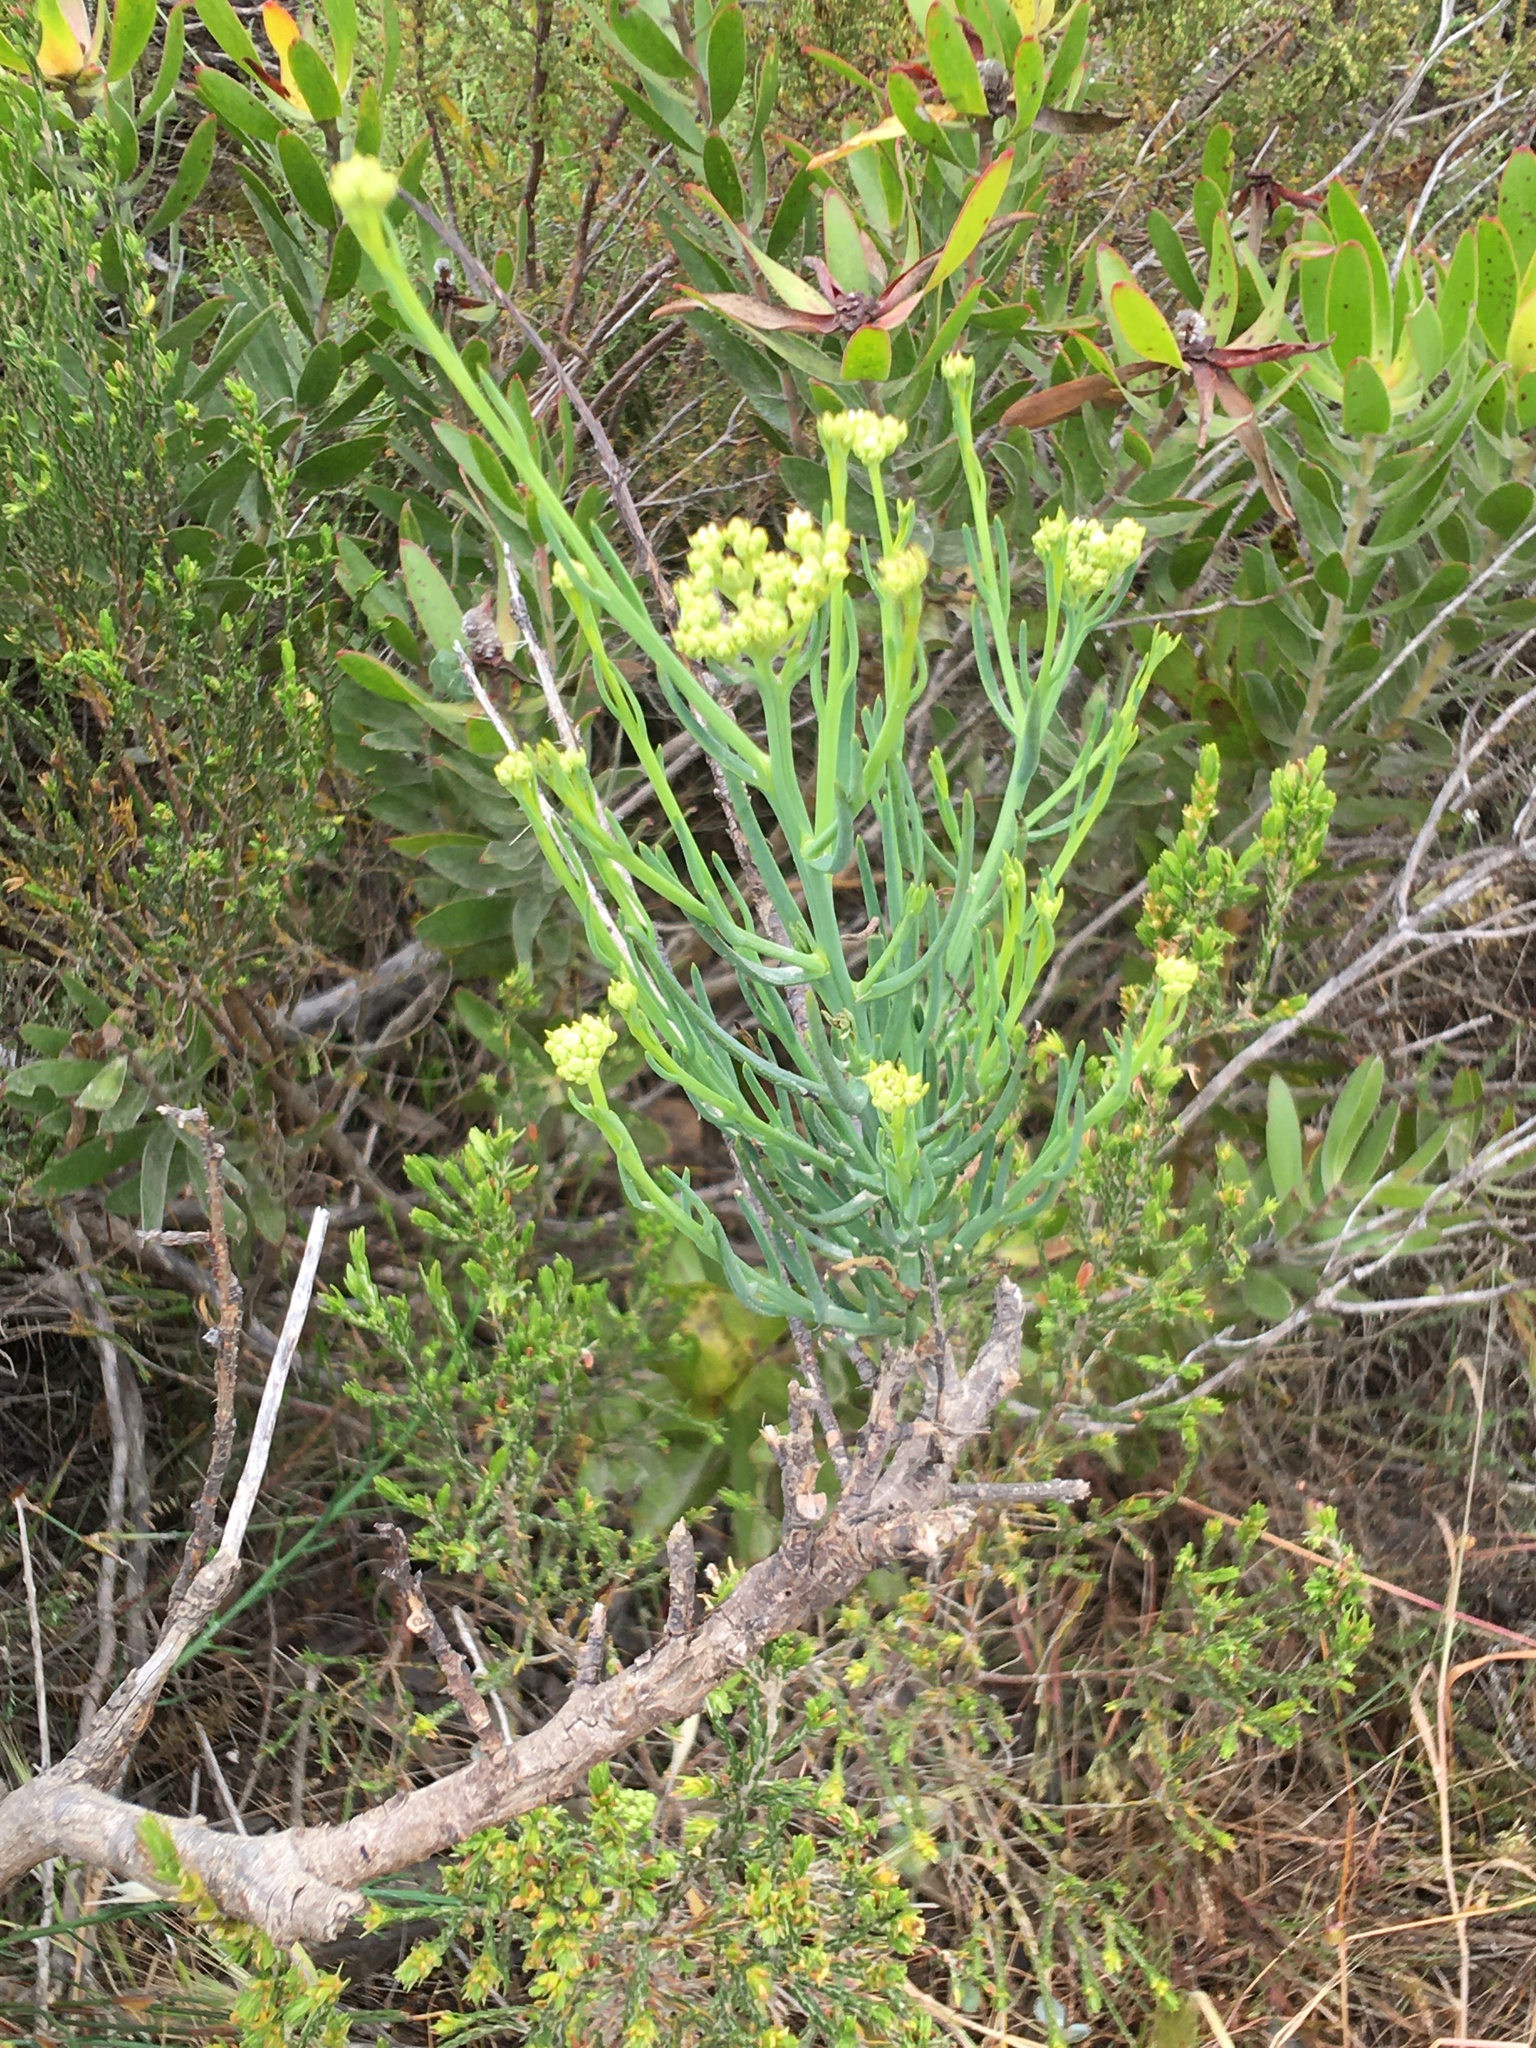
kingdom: Plantae
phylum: Tracheophyta
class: Magnoliopsida
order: Santalales
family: Thesiaceae
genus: Thesium
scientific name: Thesium strictum
